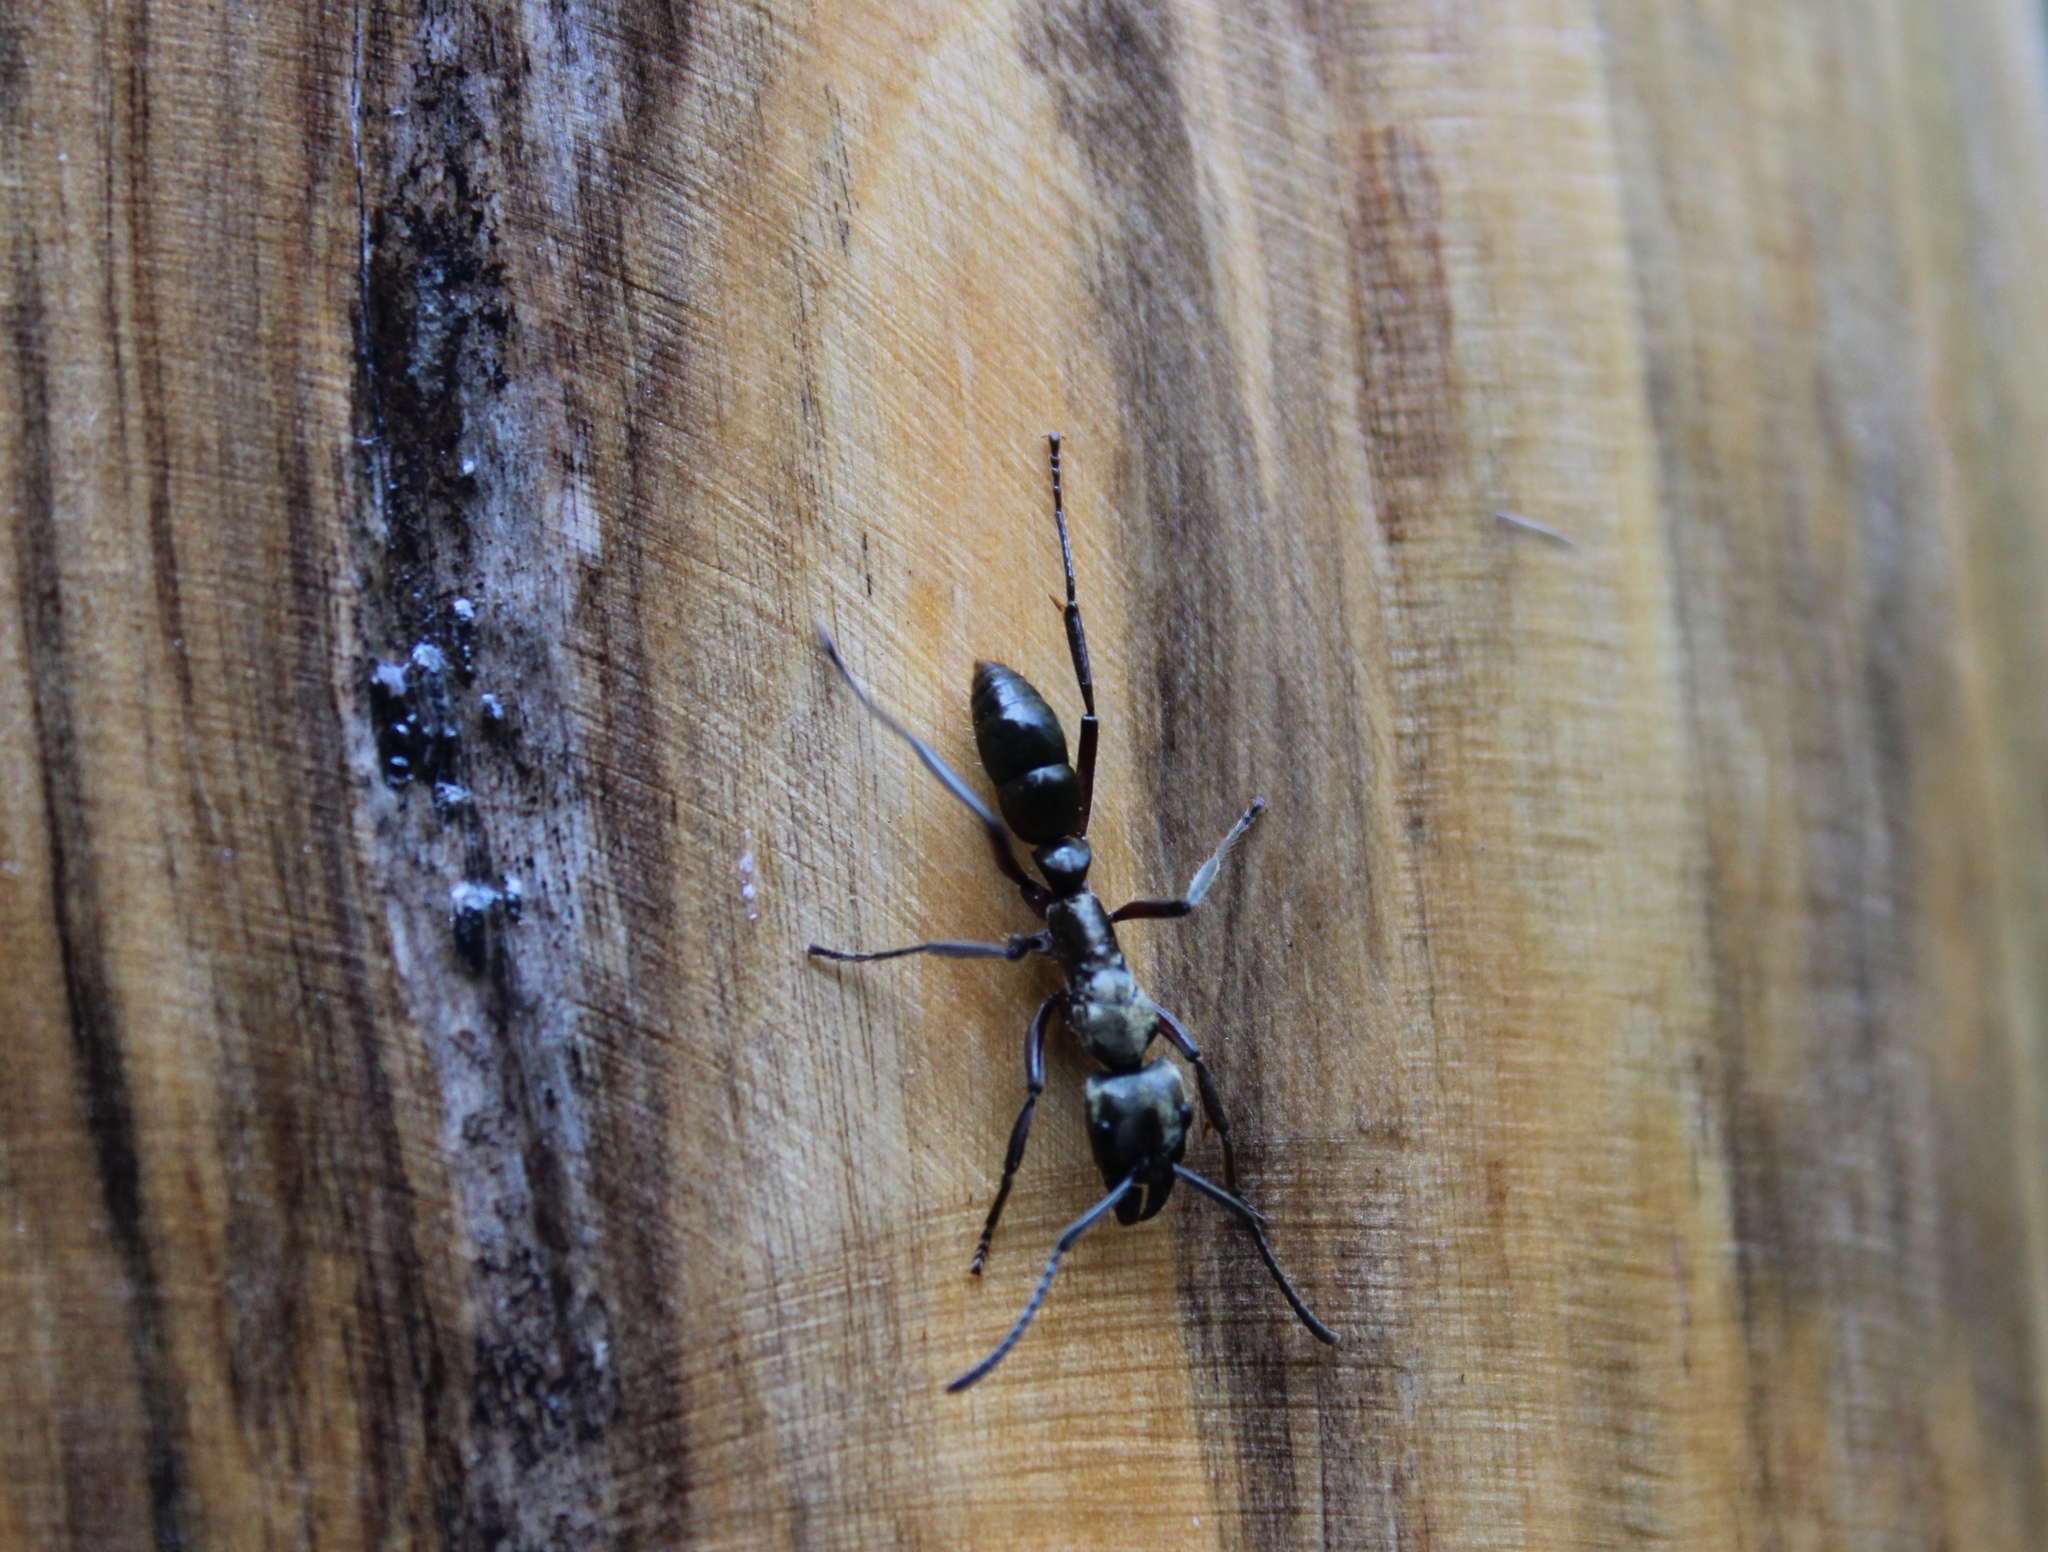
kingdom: Animalia
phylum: Arthropoda
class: Insecta
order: Hymenoptera
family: Formicidae
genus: Pachycondyla
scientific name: Pachycondyla villosa
